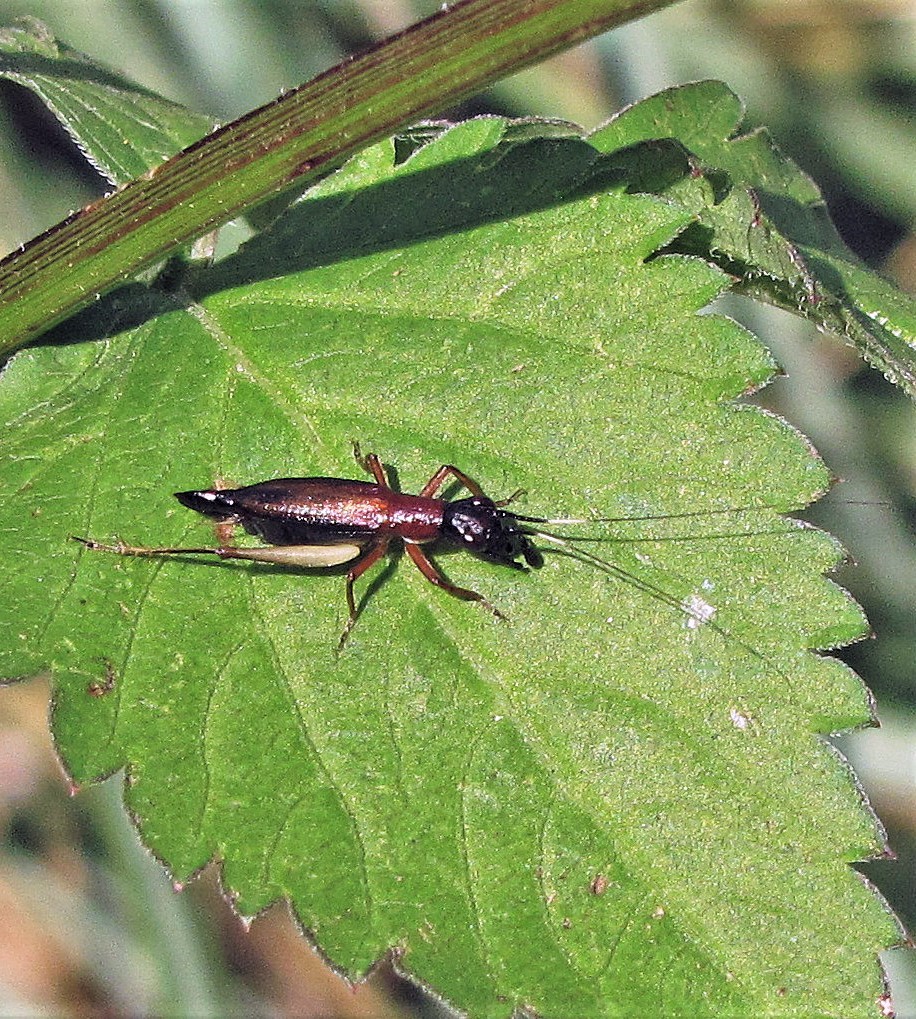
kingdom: Animalia
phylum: Arthropoda
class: Insecta
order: Orthoptera
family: Trigonidiidae
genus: Cranistus
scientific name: Cranistus colliurides
